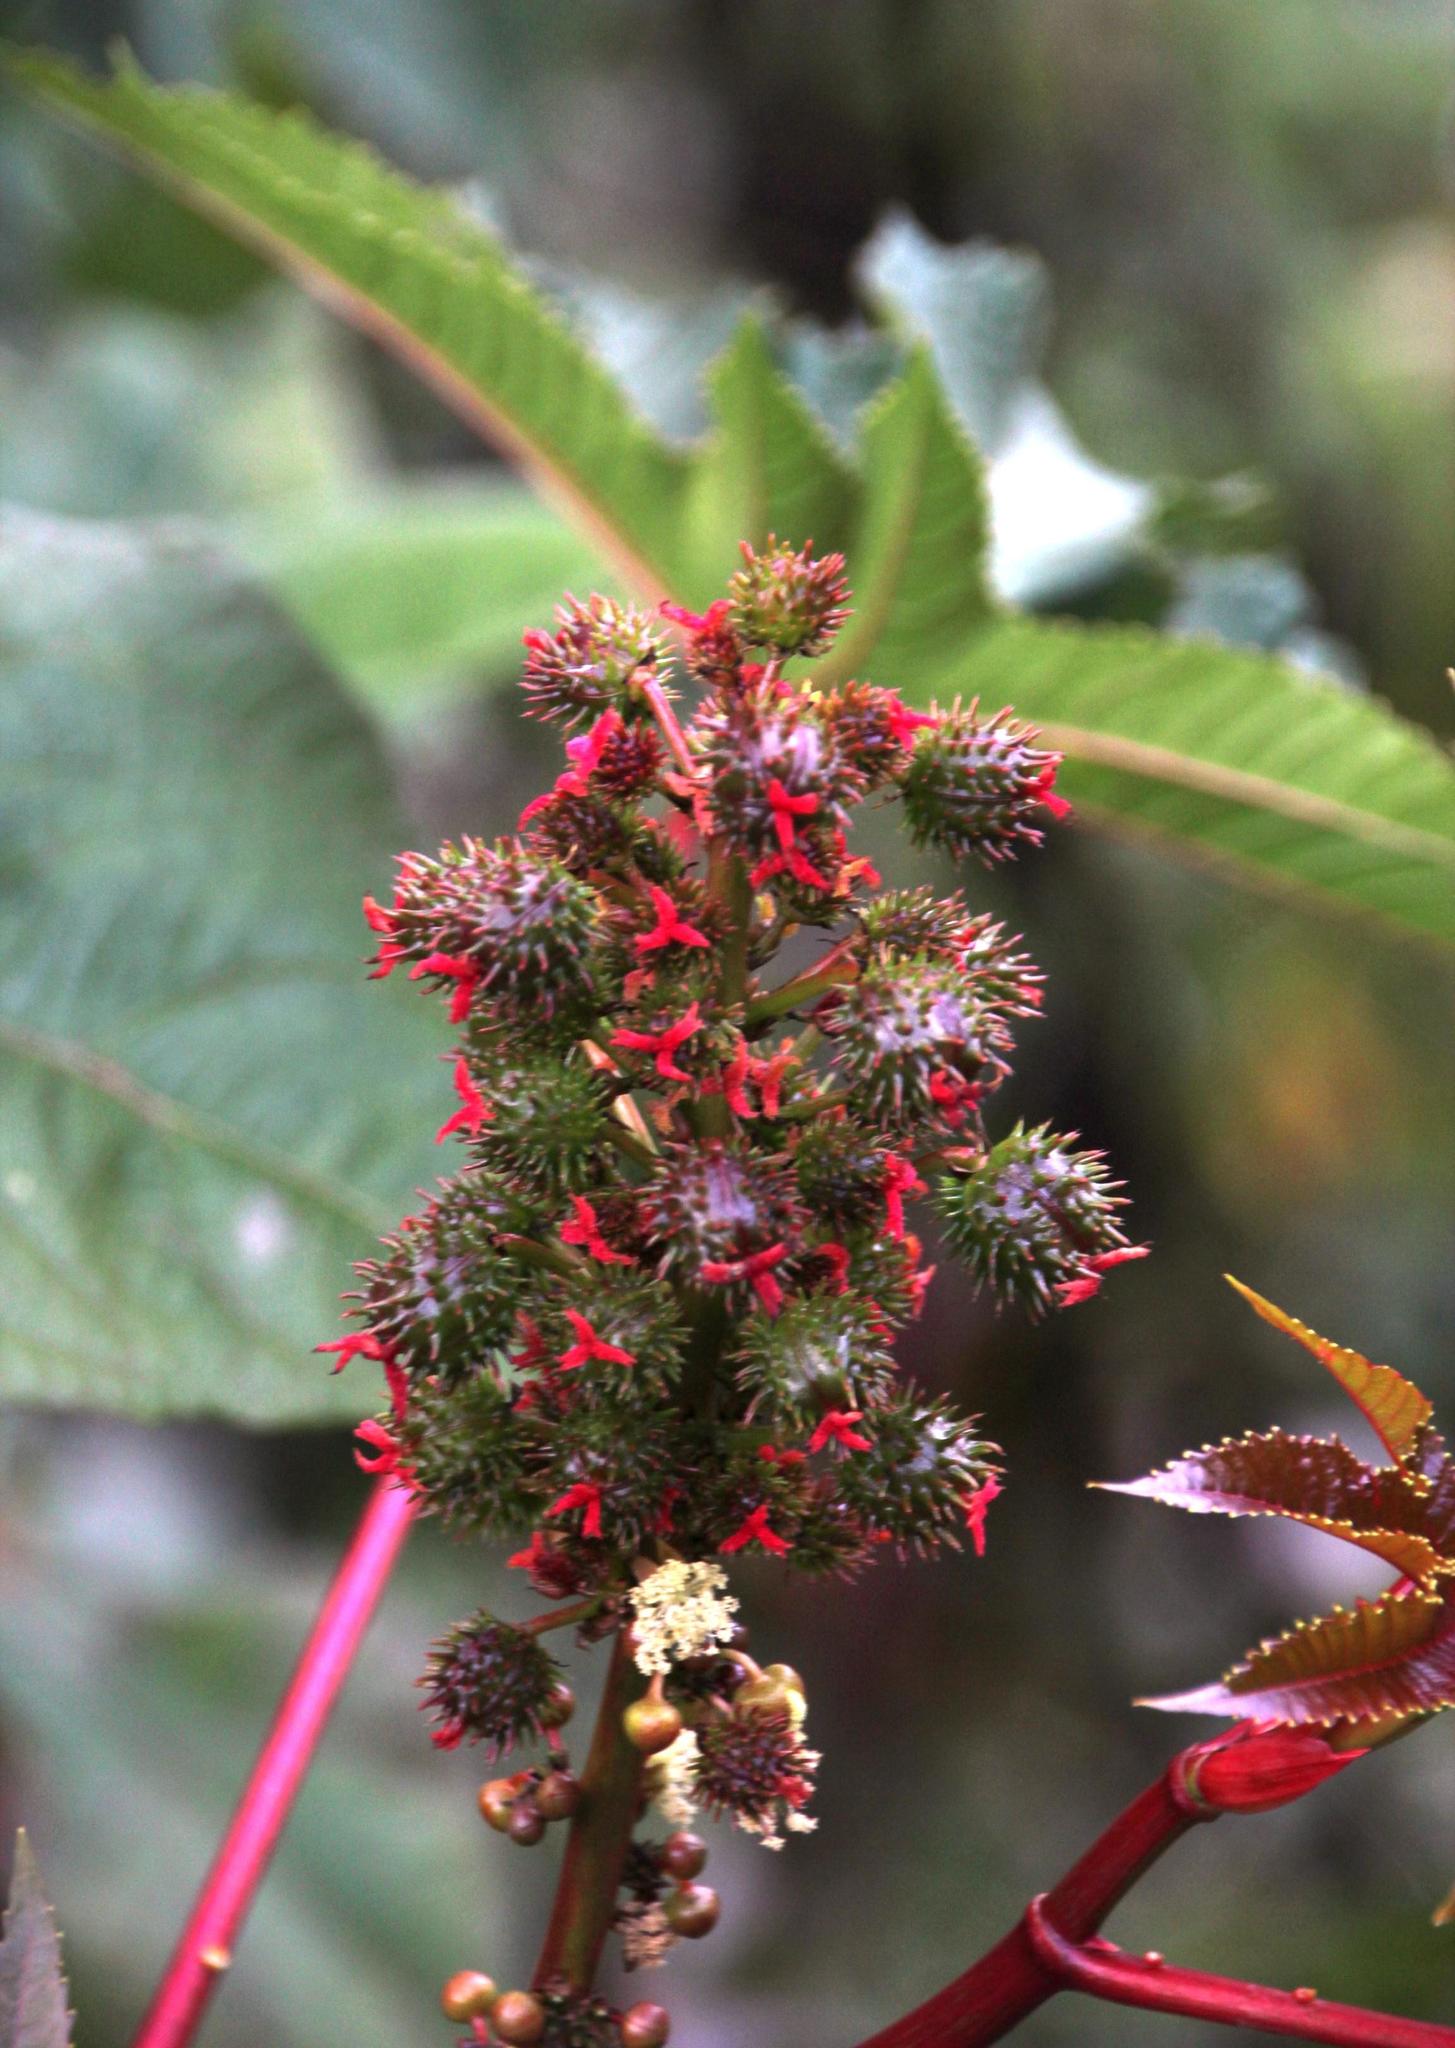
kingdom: Plantae
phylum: Tracheophyta
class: Magnoliopsida
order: Malpighiales
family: Euphorbiaceae
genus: Ricinus
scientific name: Ricinus communis
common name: Castor-oil-plant
